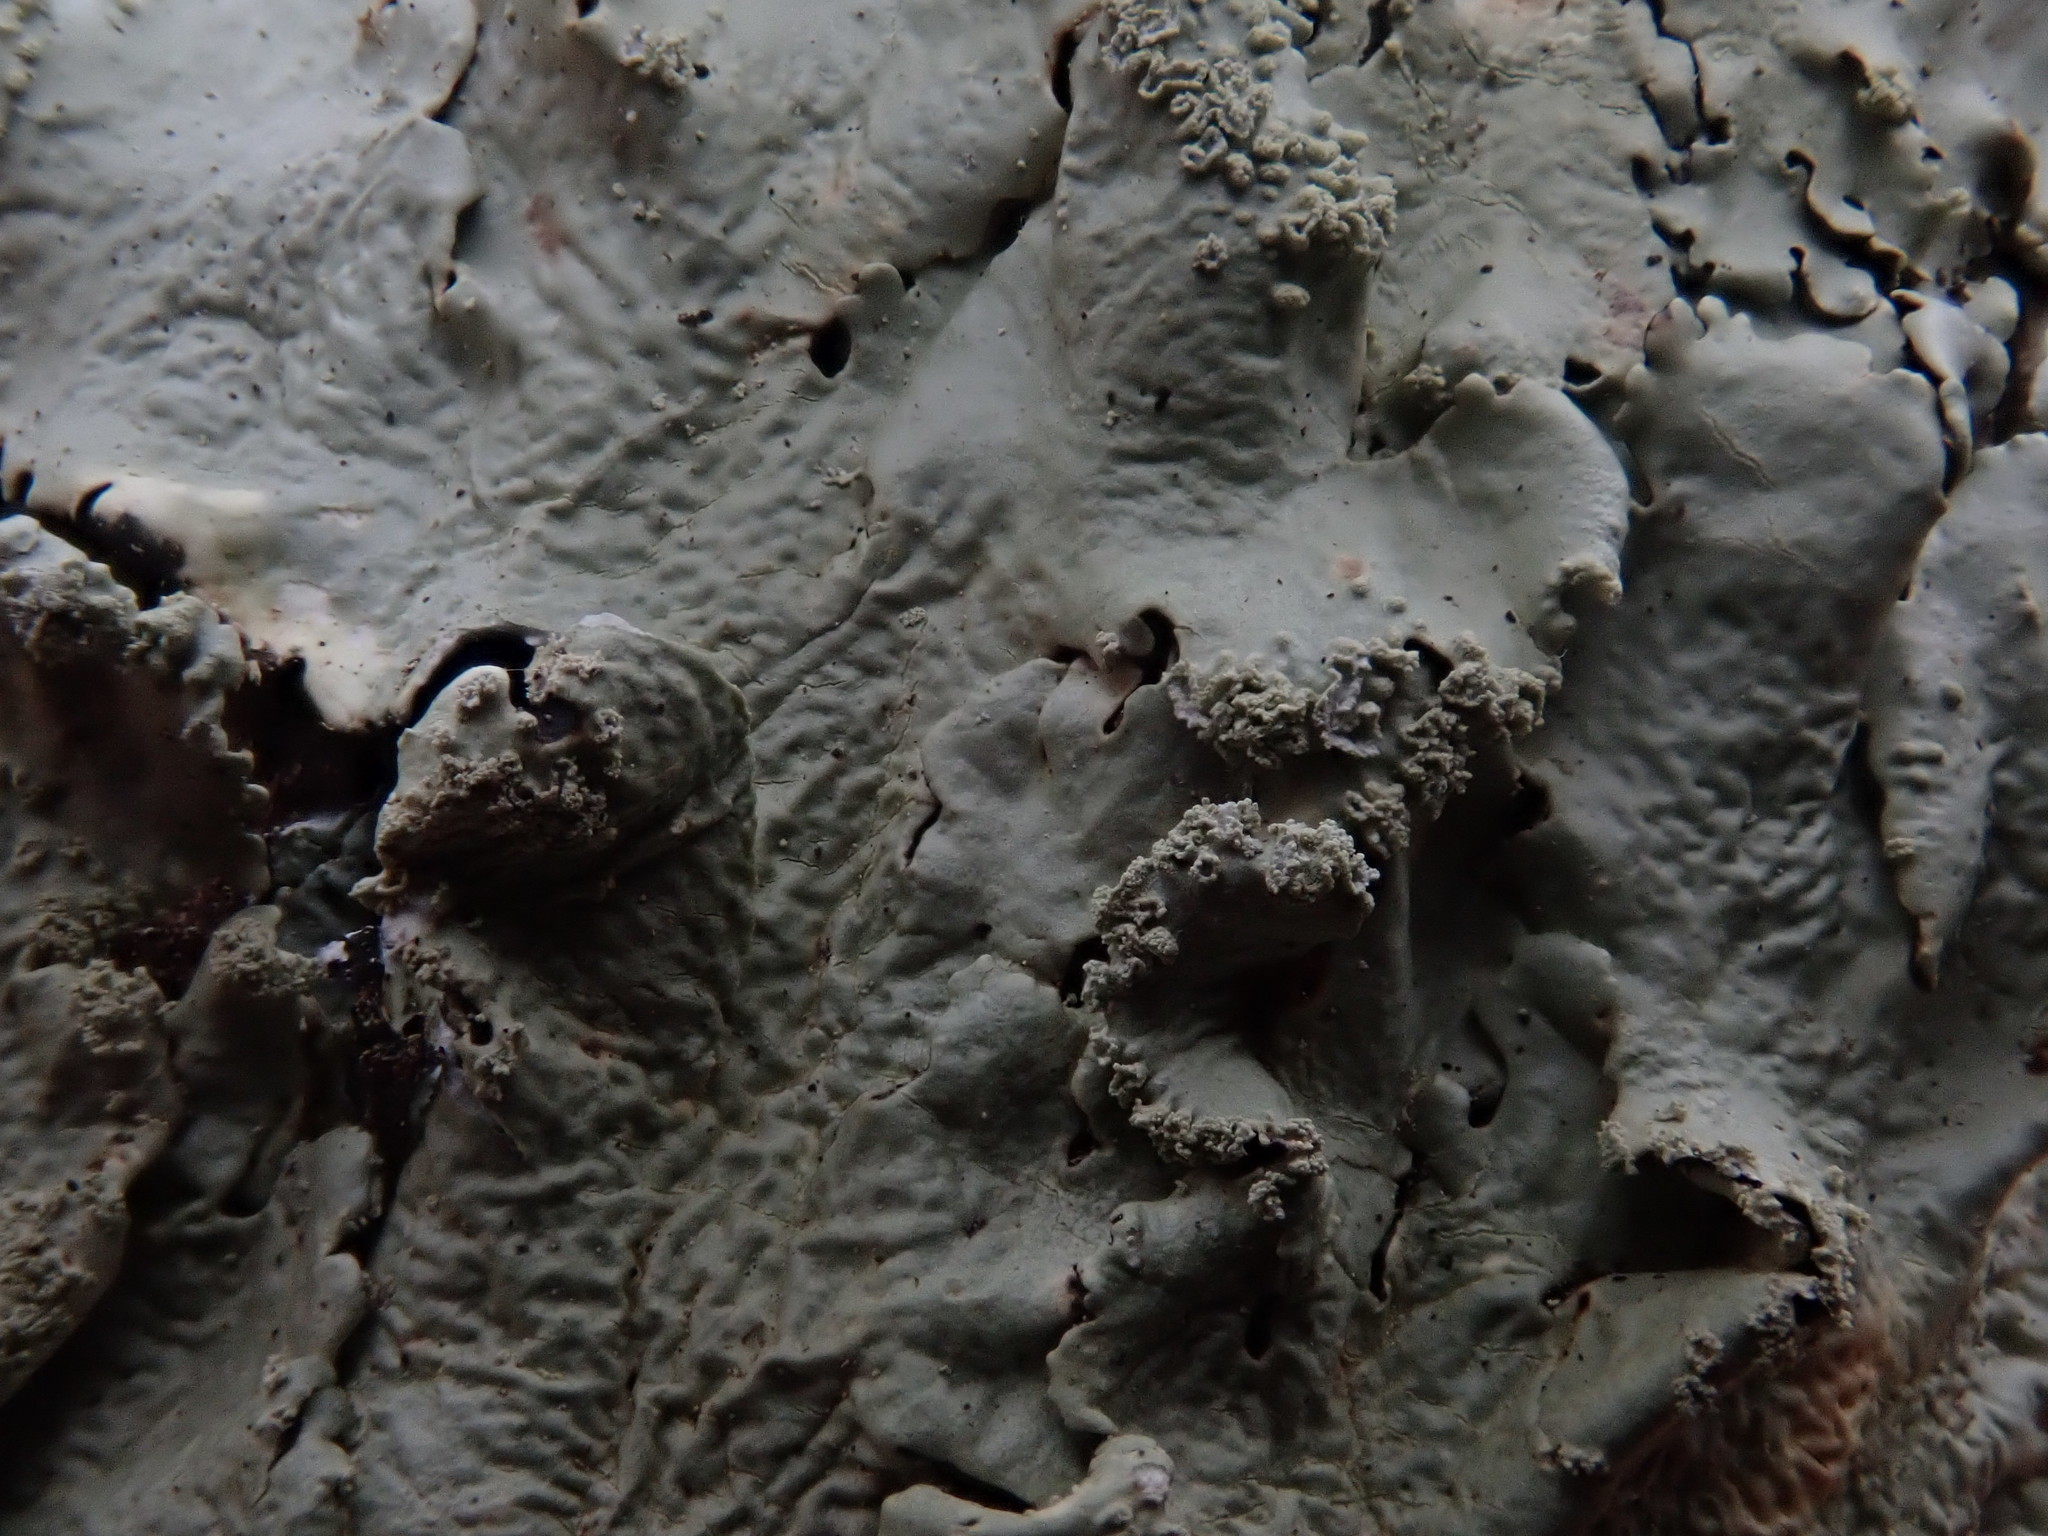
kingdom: Fungi
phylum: Ascomycota
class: Lecanoromycetes
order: Lecanorales
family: Parmeliaceae
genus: Flavoparmelia
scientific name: Flavoparmelia caperata
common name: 40-mile per hour lichen
